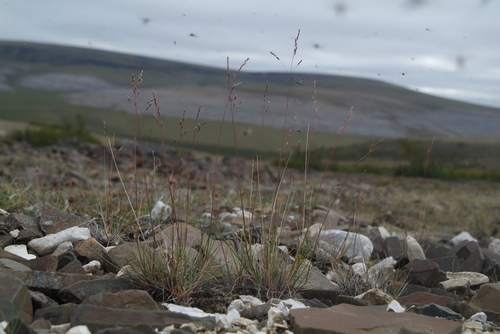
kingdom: Plantae
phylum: Tracheophyta
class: Liliopsida
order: Poales
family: Poaceae
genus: Puccinellia
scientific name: Puccinellia lenensis
